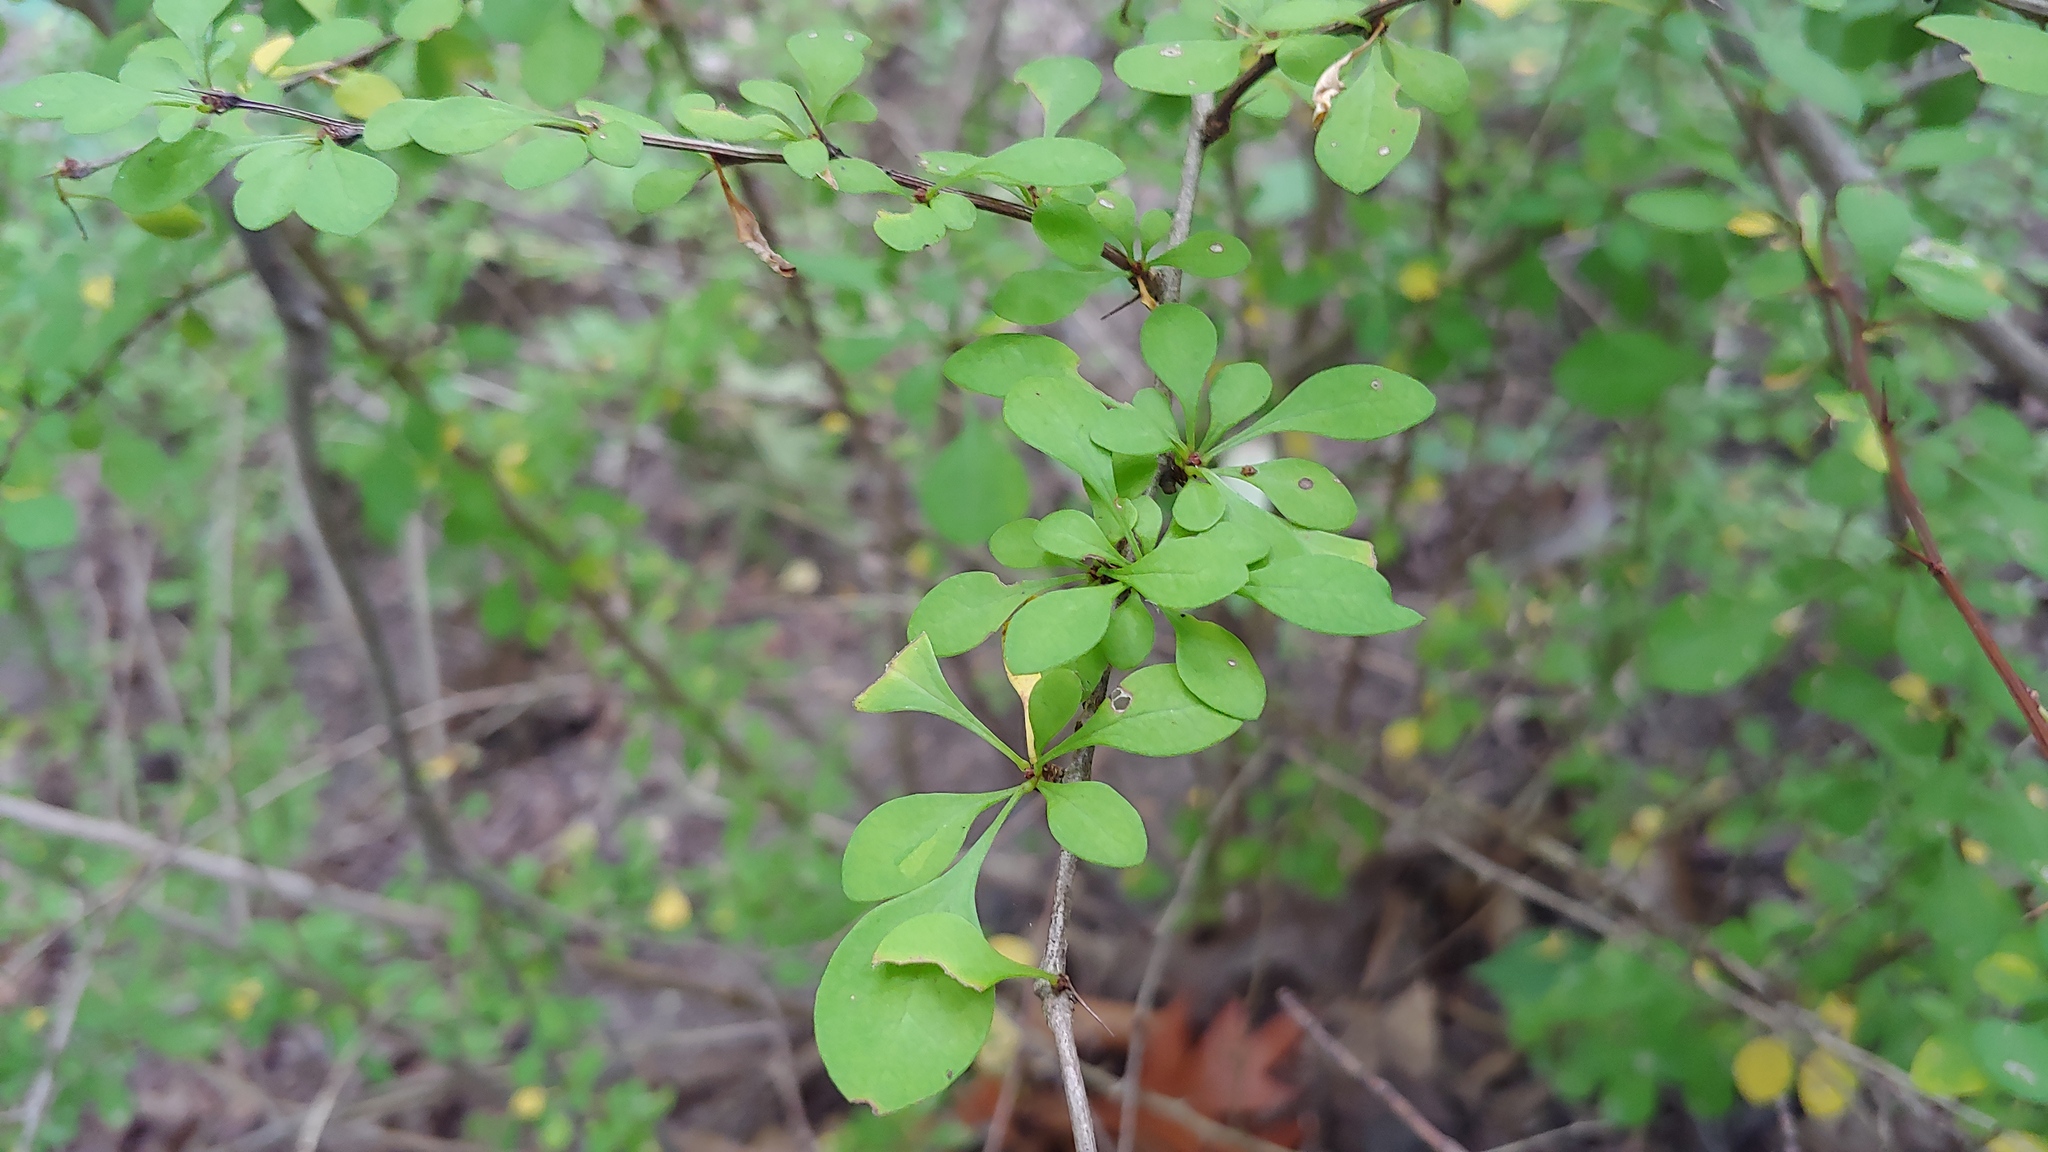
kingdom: Plantae
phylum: Tracheophyta
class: Magnoliopsida
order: Ranunculales
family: Berberidaceae
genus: Berberis
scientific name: Berberis thunbergii
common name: Japanese barberry
